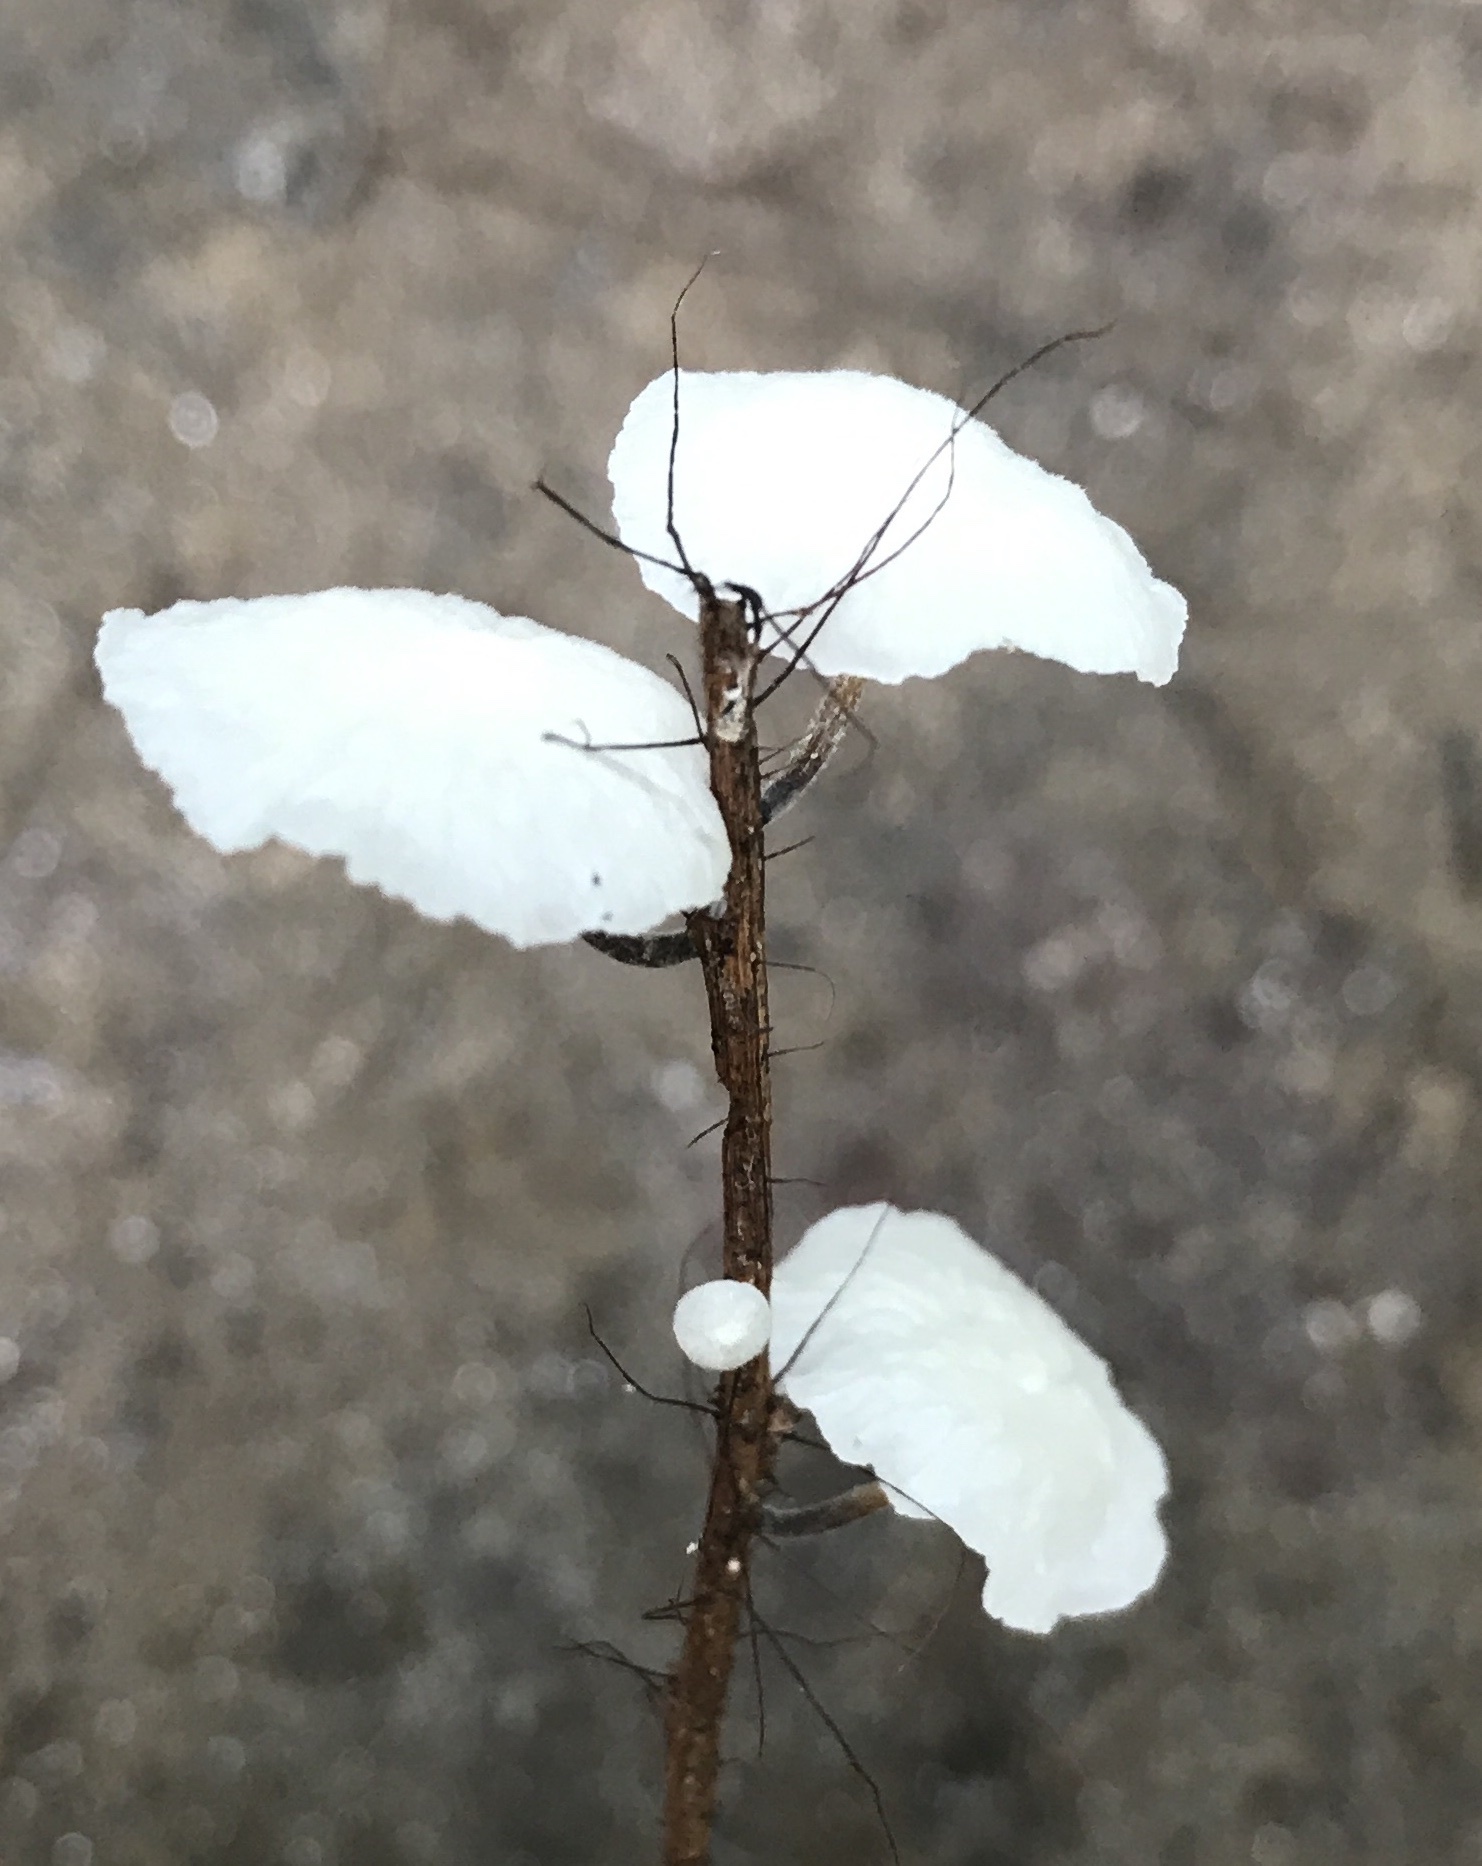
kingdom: Fungi
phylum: Basidiomycota
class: Agaricomycetes
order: Agaricales
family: Marasmiaceae
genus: Tetrapyrgos
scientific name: Tetrapyrgos nigripes
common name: Black-stalked marasmius
